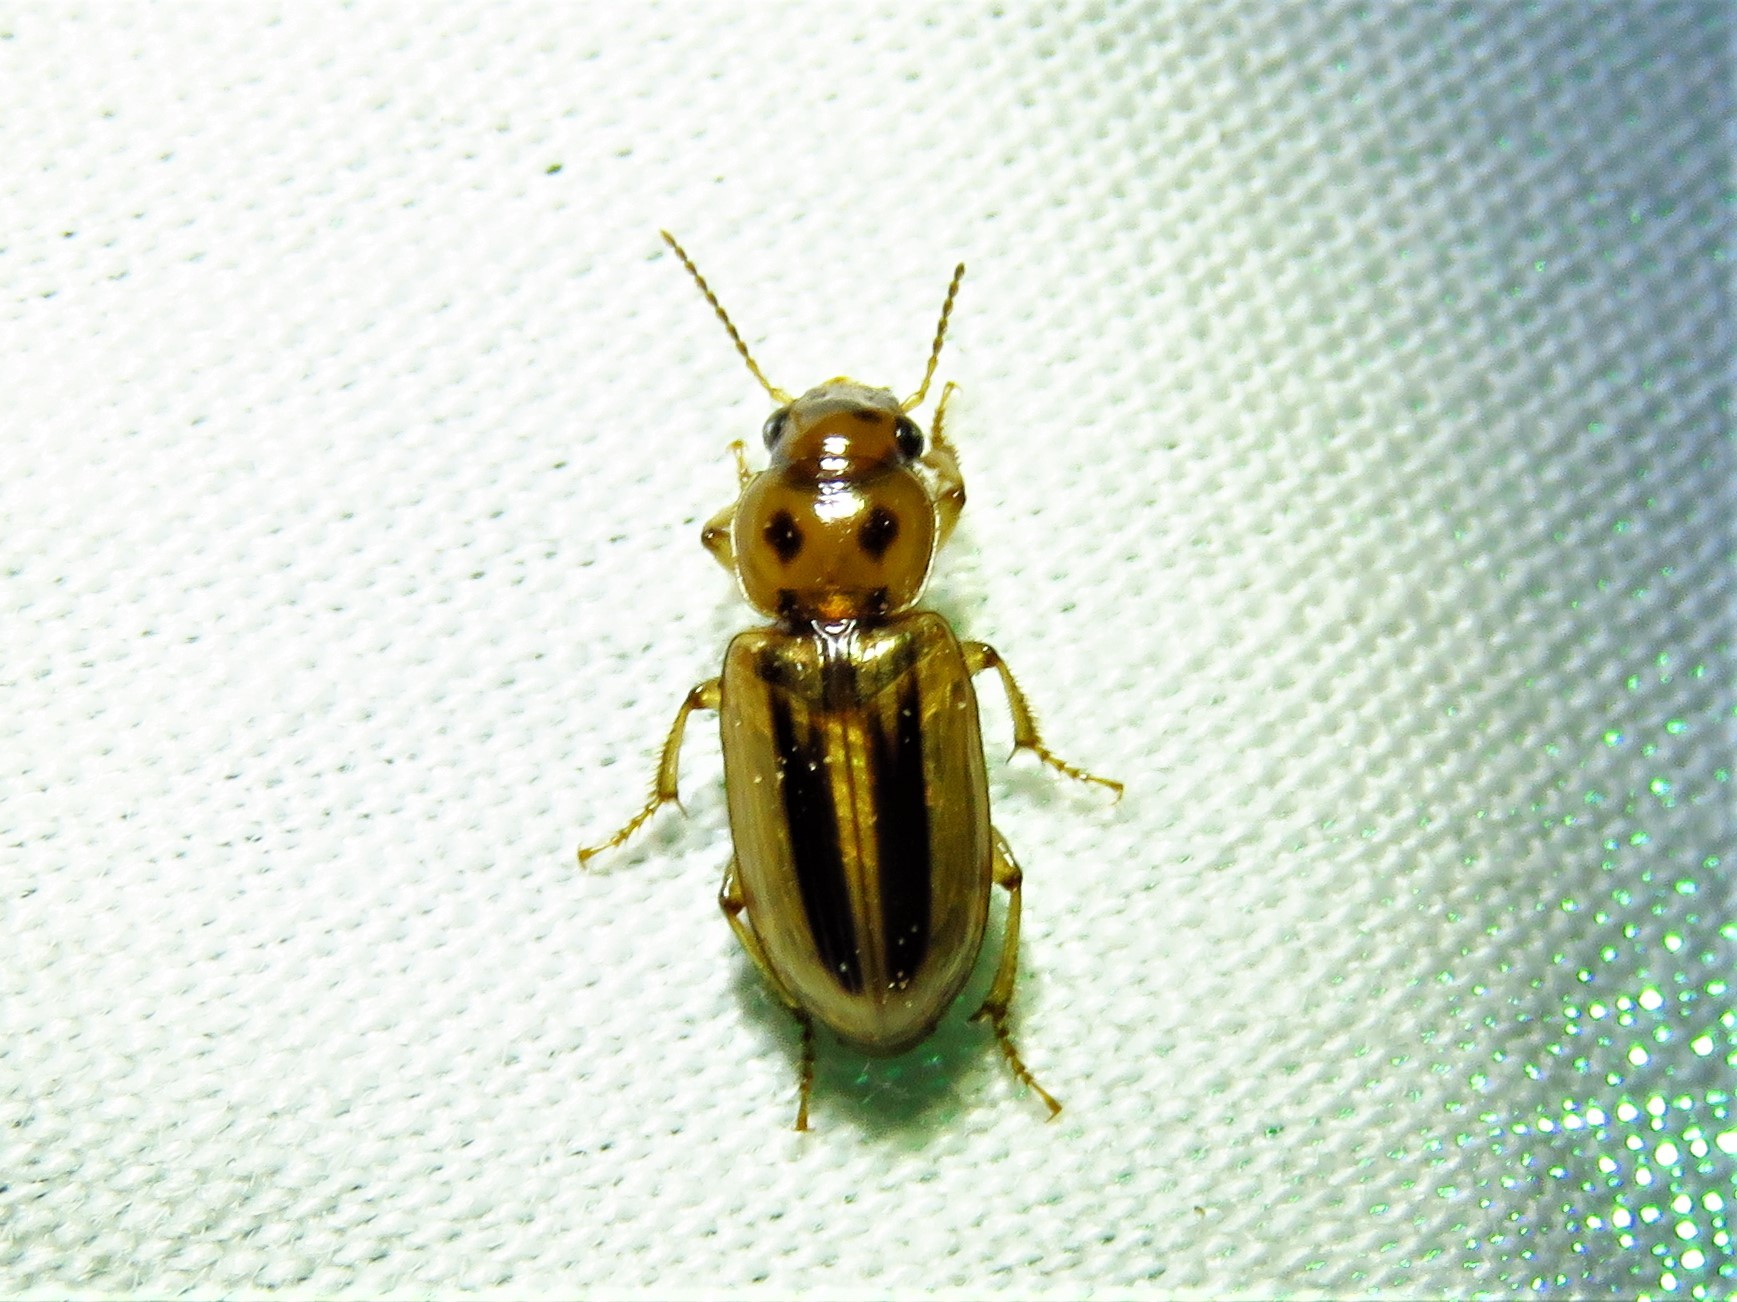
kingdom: Animalia
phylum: Arthropoda
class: Insecta
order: Coleoptera
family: Carabidae
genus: Stenolophus
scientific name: Stenolophus lineola
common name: Lined stenolophus
